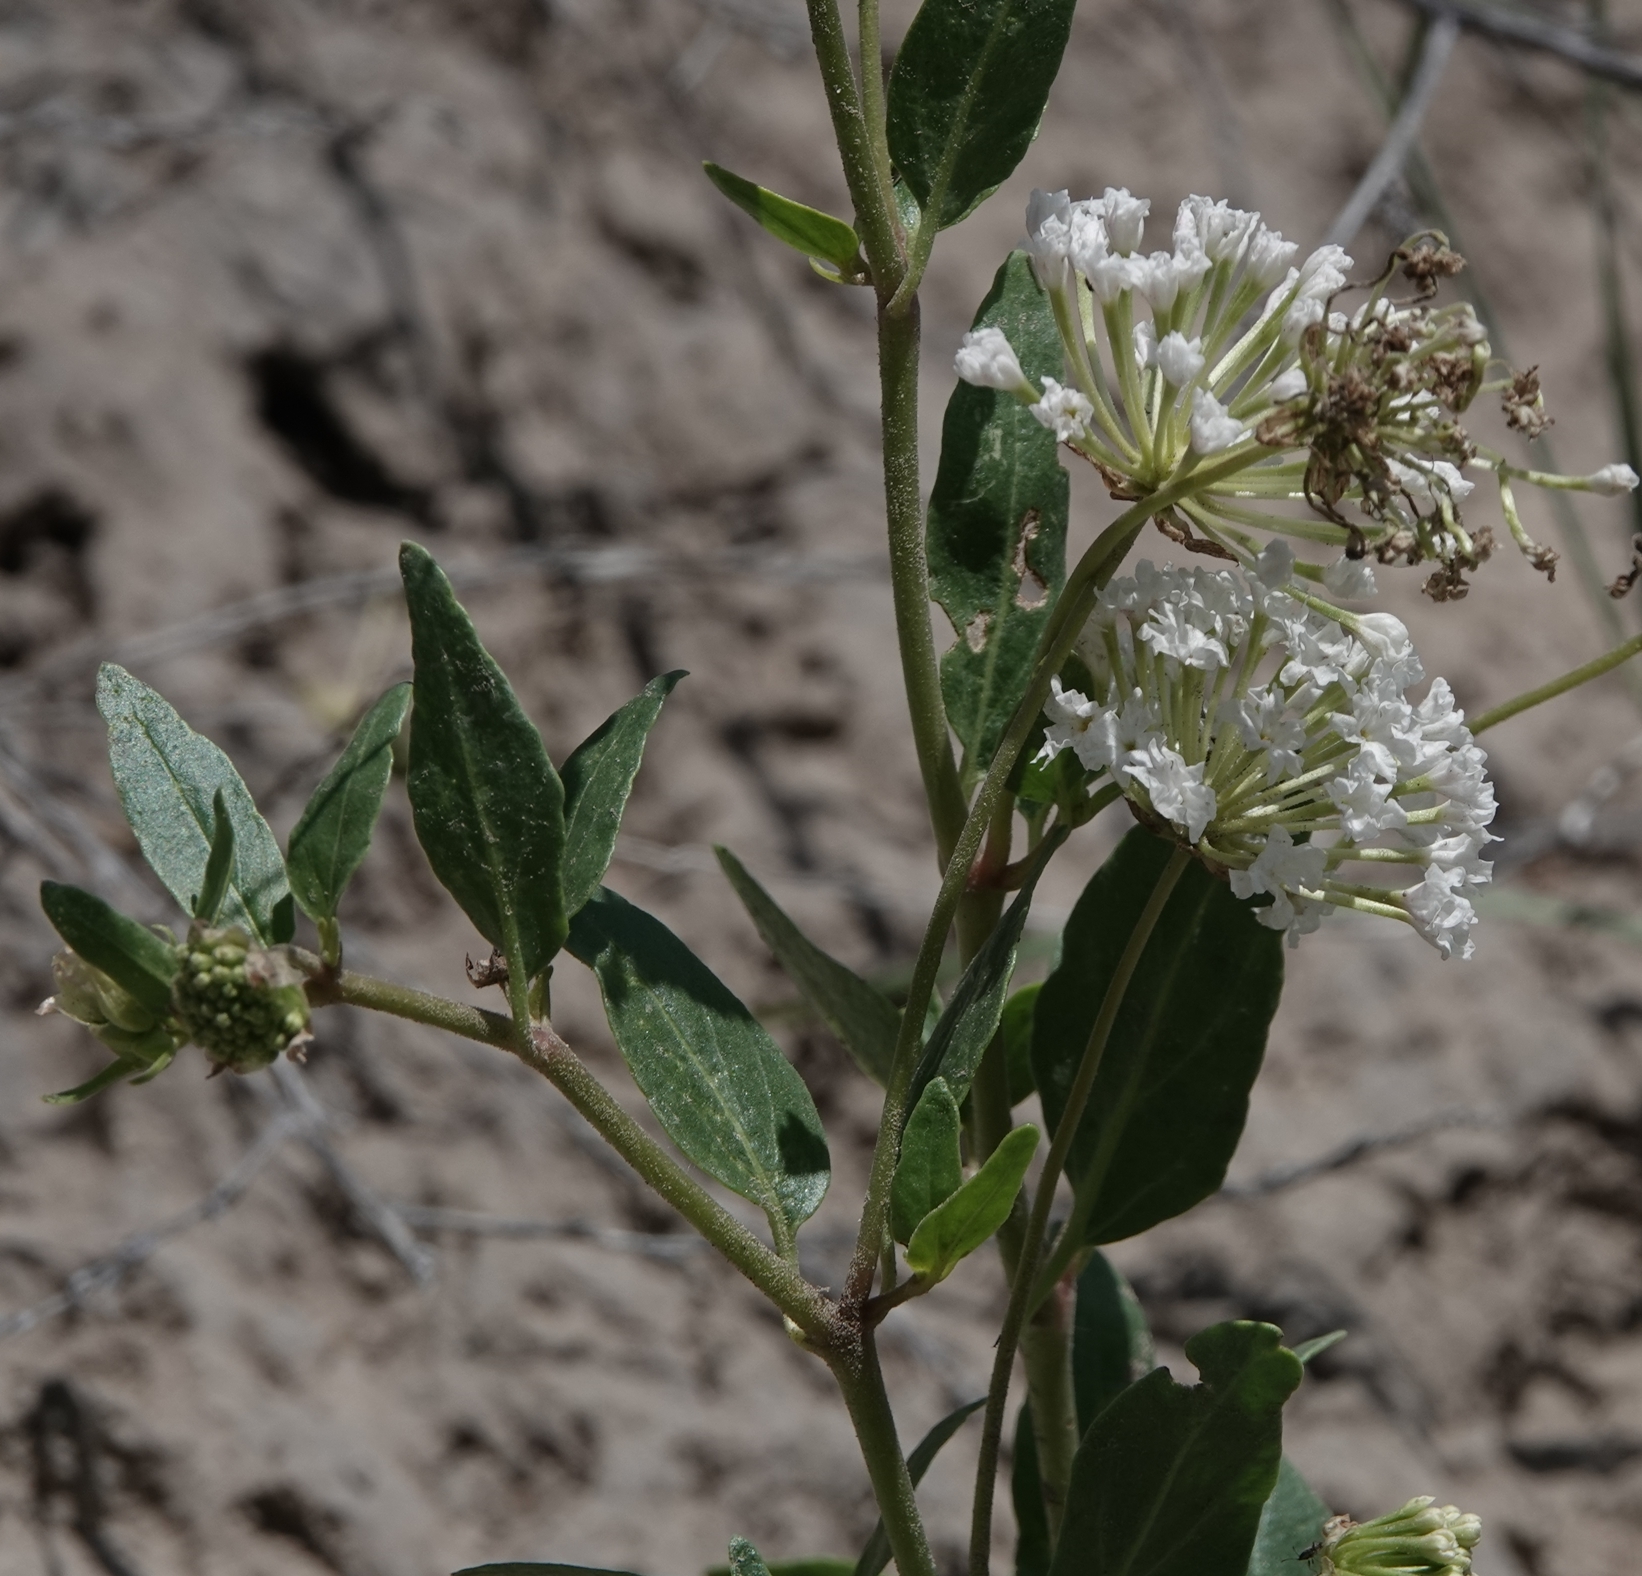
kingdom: Plantae
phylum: Tracheophyta
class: Magnoliopsida
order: Caryophyllales
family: Nyctaginaceae
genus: Abronia
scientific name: Abronia fragrans
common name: Fragrant sand-verbena
